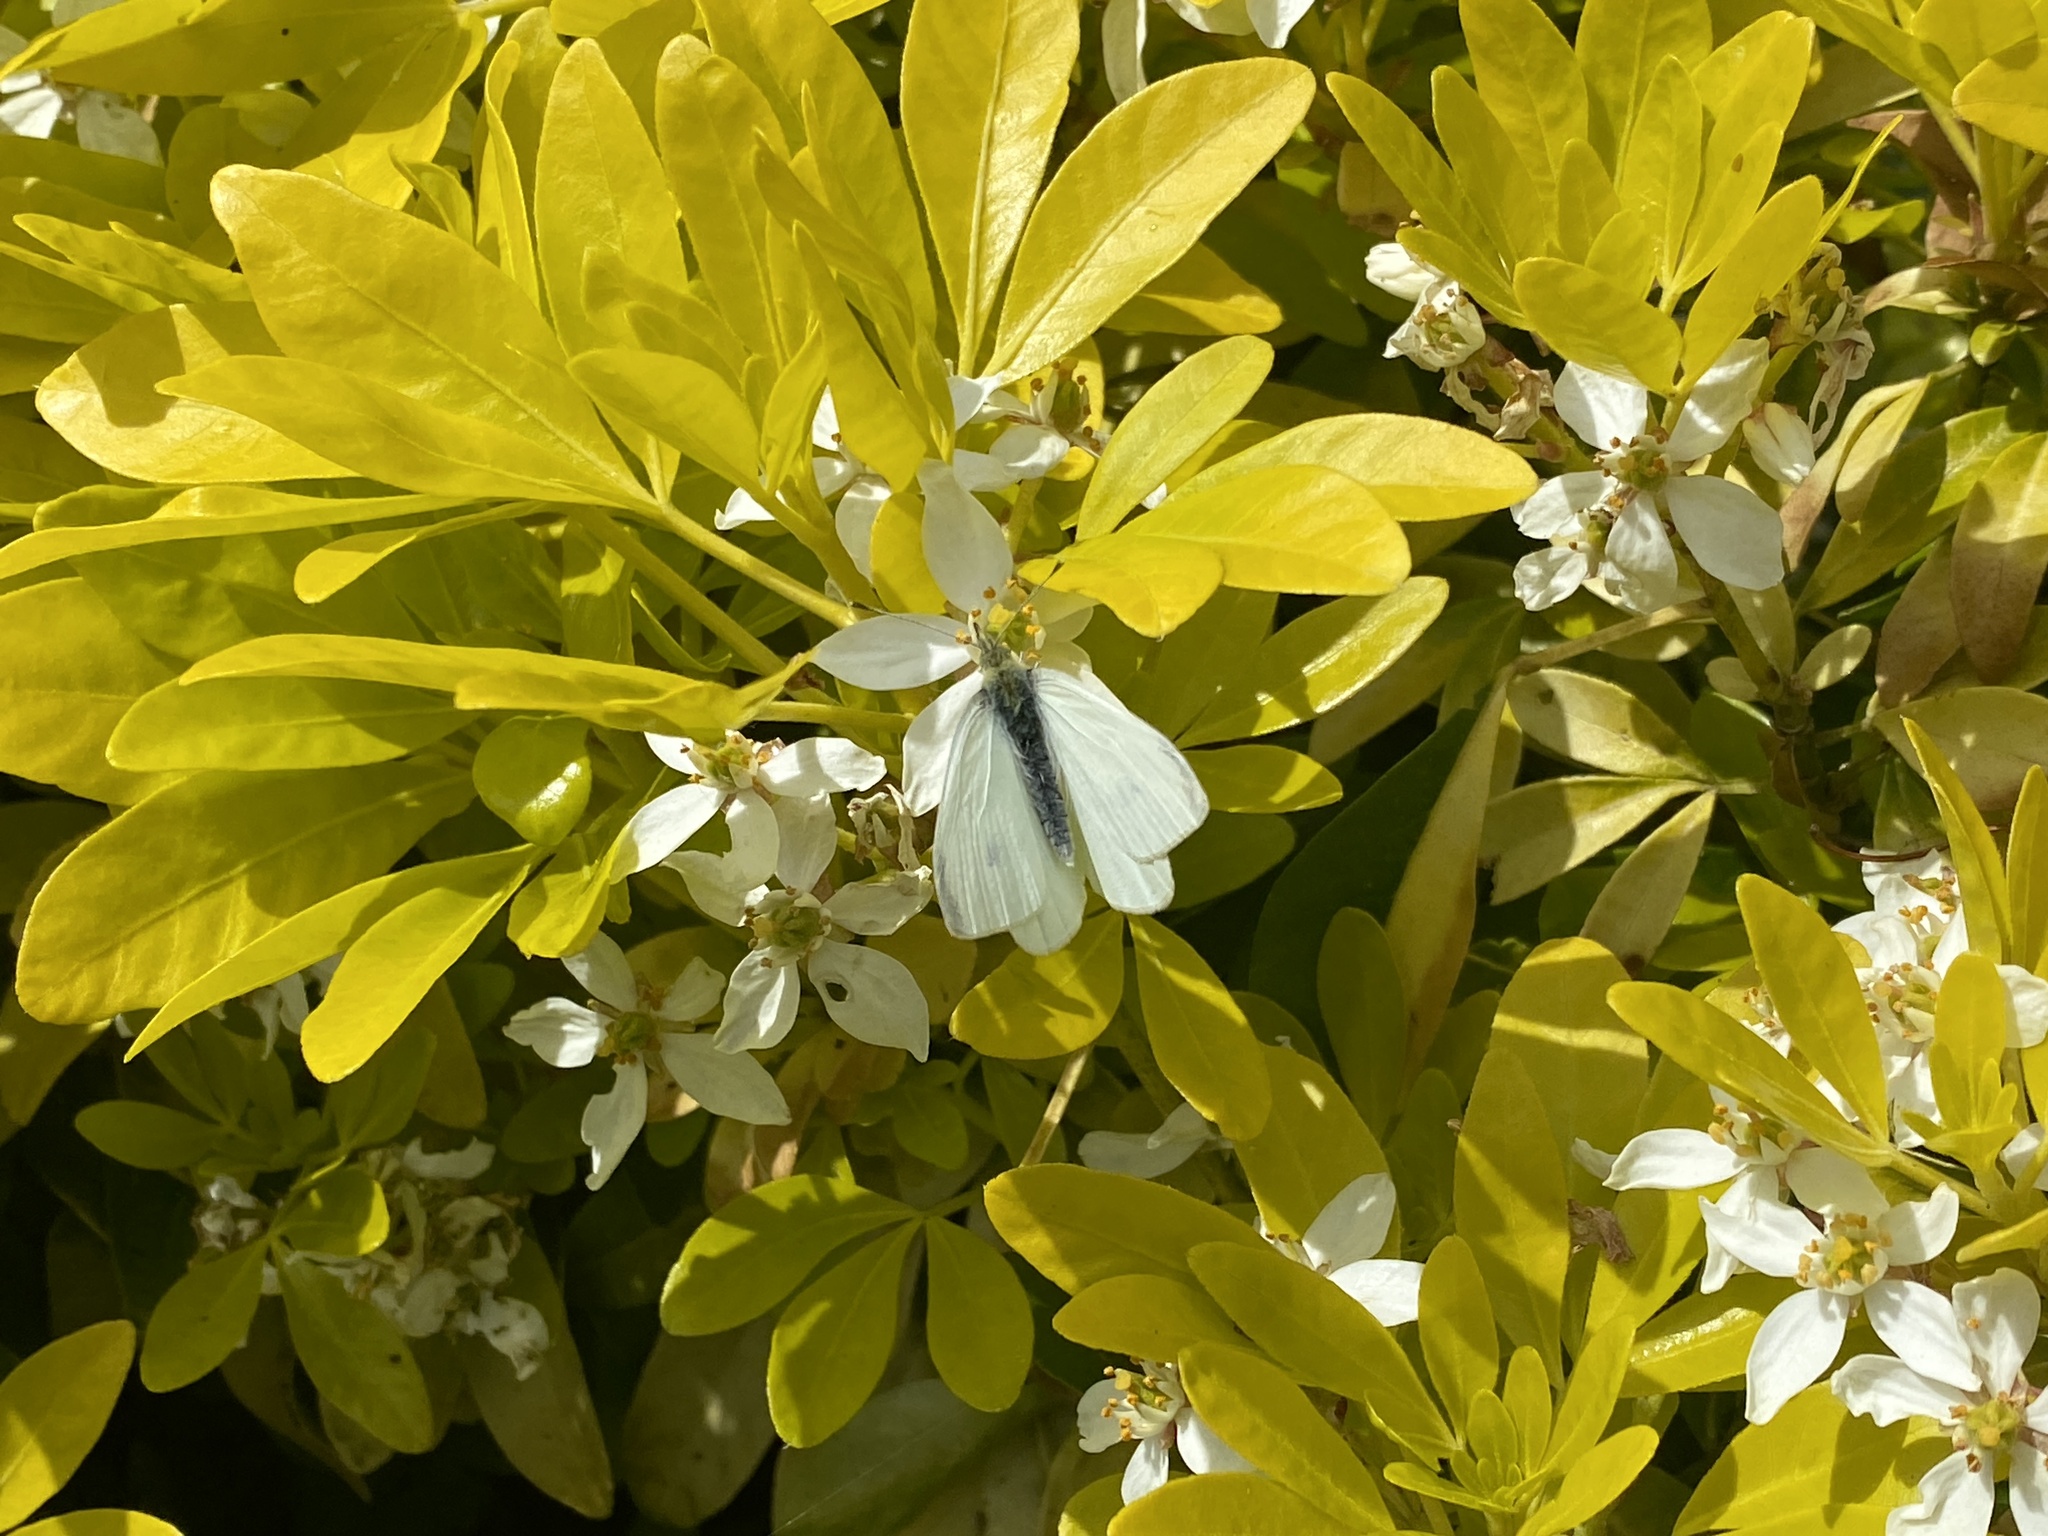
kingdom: Animalia
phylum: Arthropoda
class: Insecta
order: Lepidoptera
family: Pieridae
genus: Pieris
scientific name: Pieris rapae
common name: Small white
